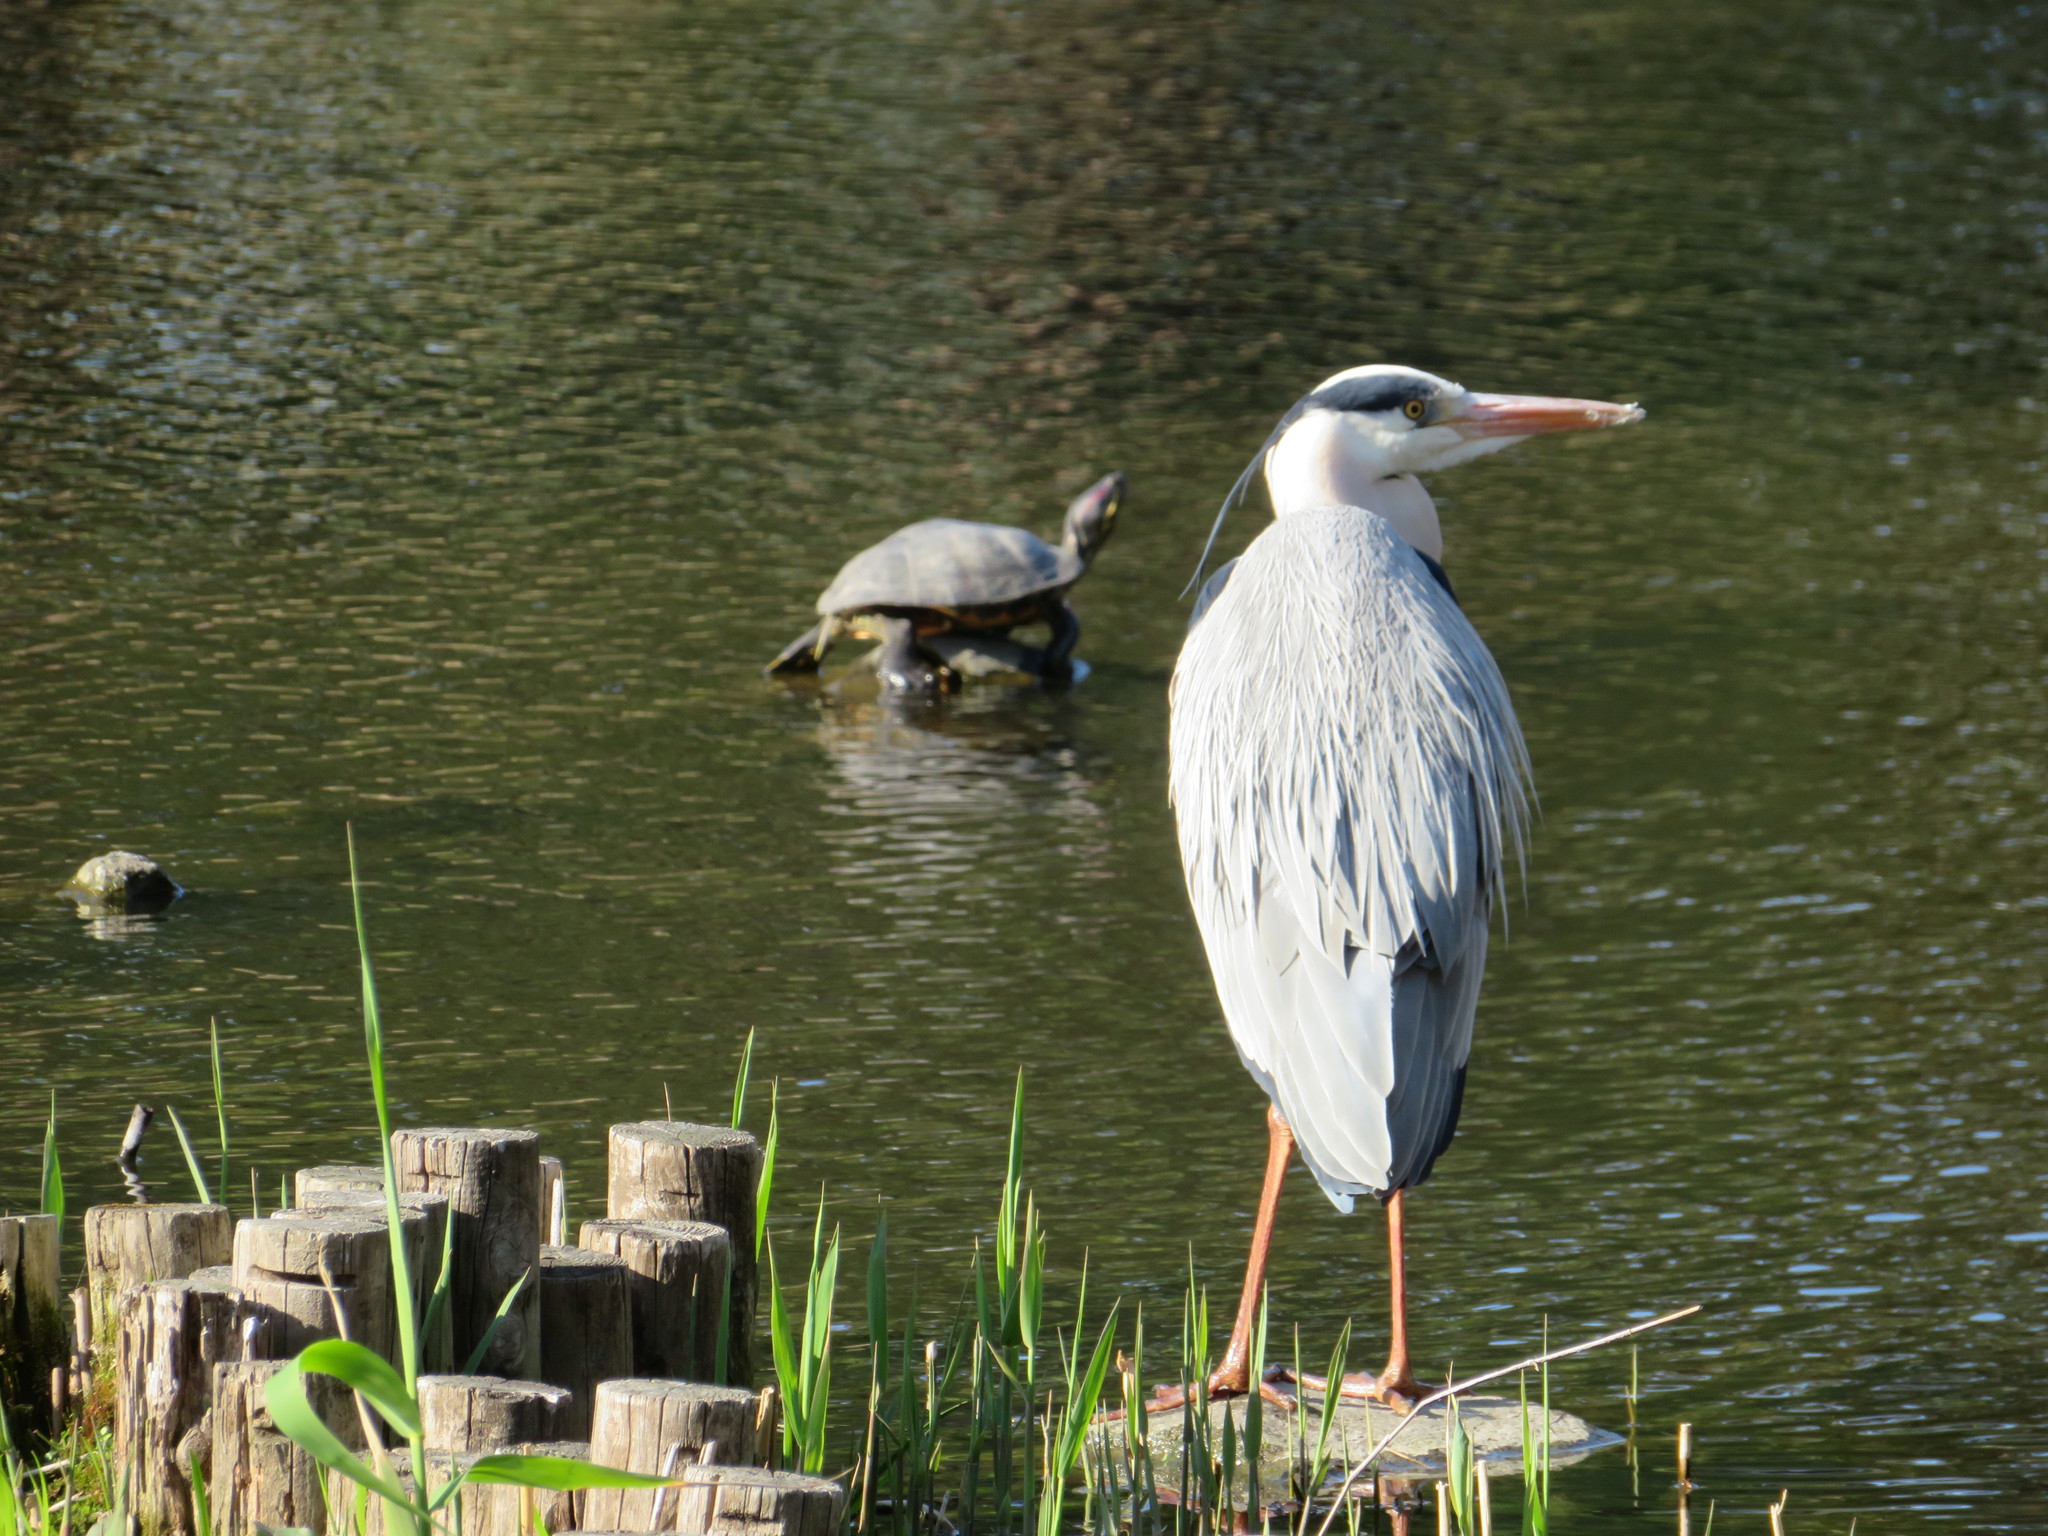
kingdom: Animalia
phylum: Chordata
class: Testudines
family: Emydidae
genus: Trachemys
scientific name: Trachemys scripta
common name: Slider
